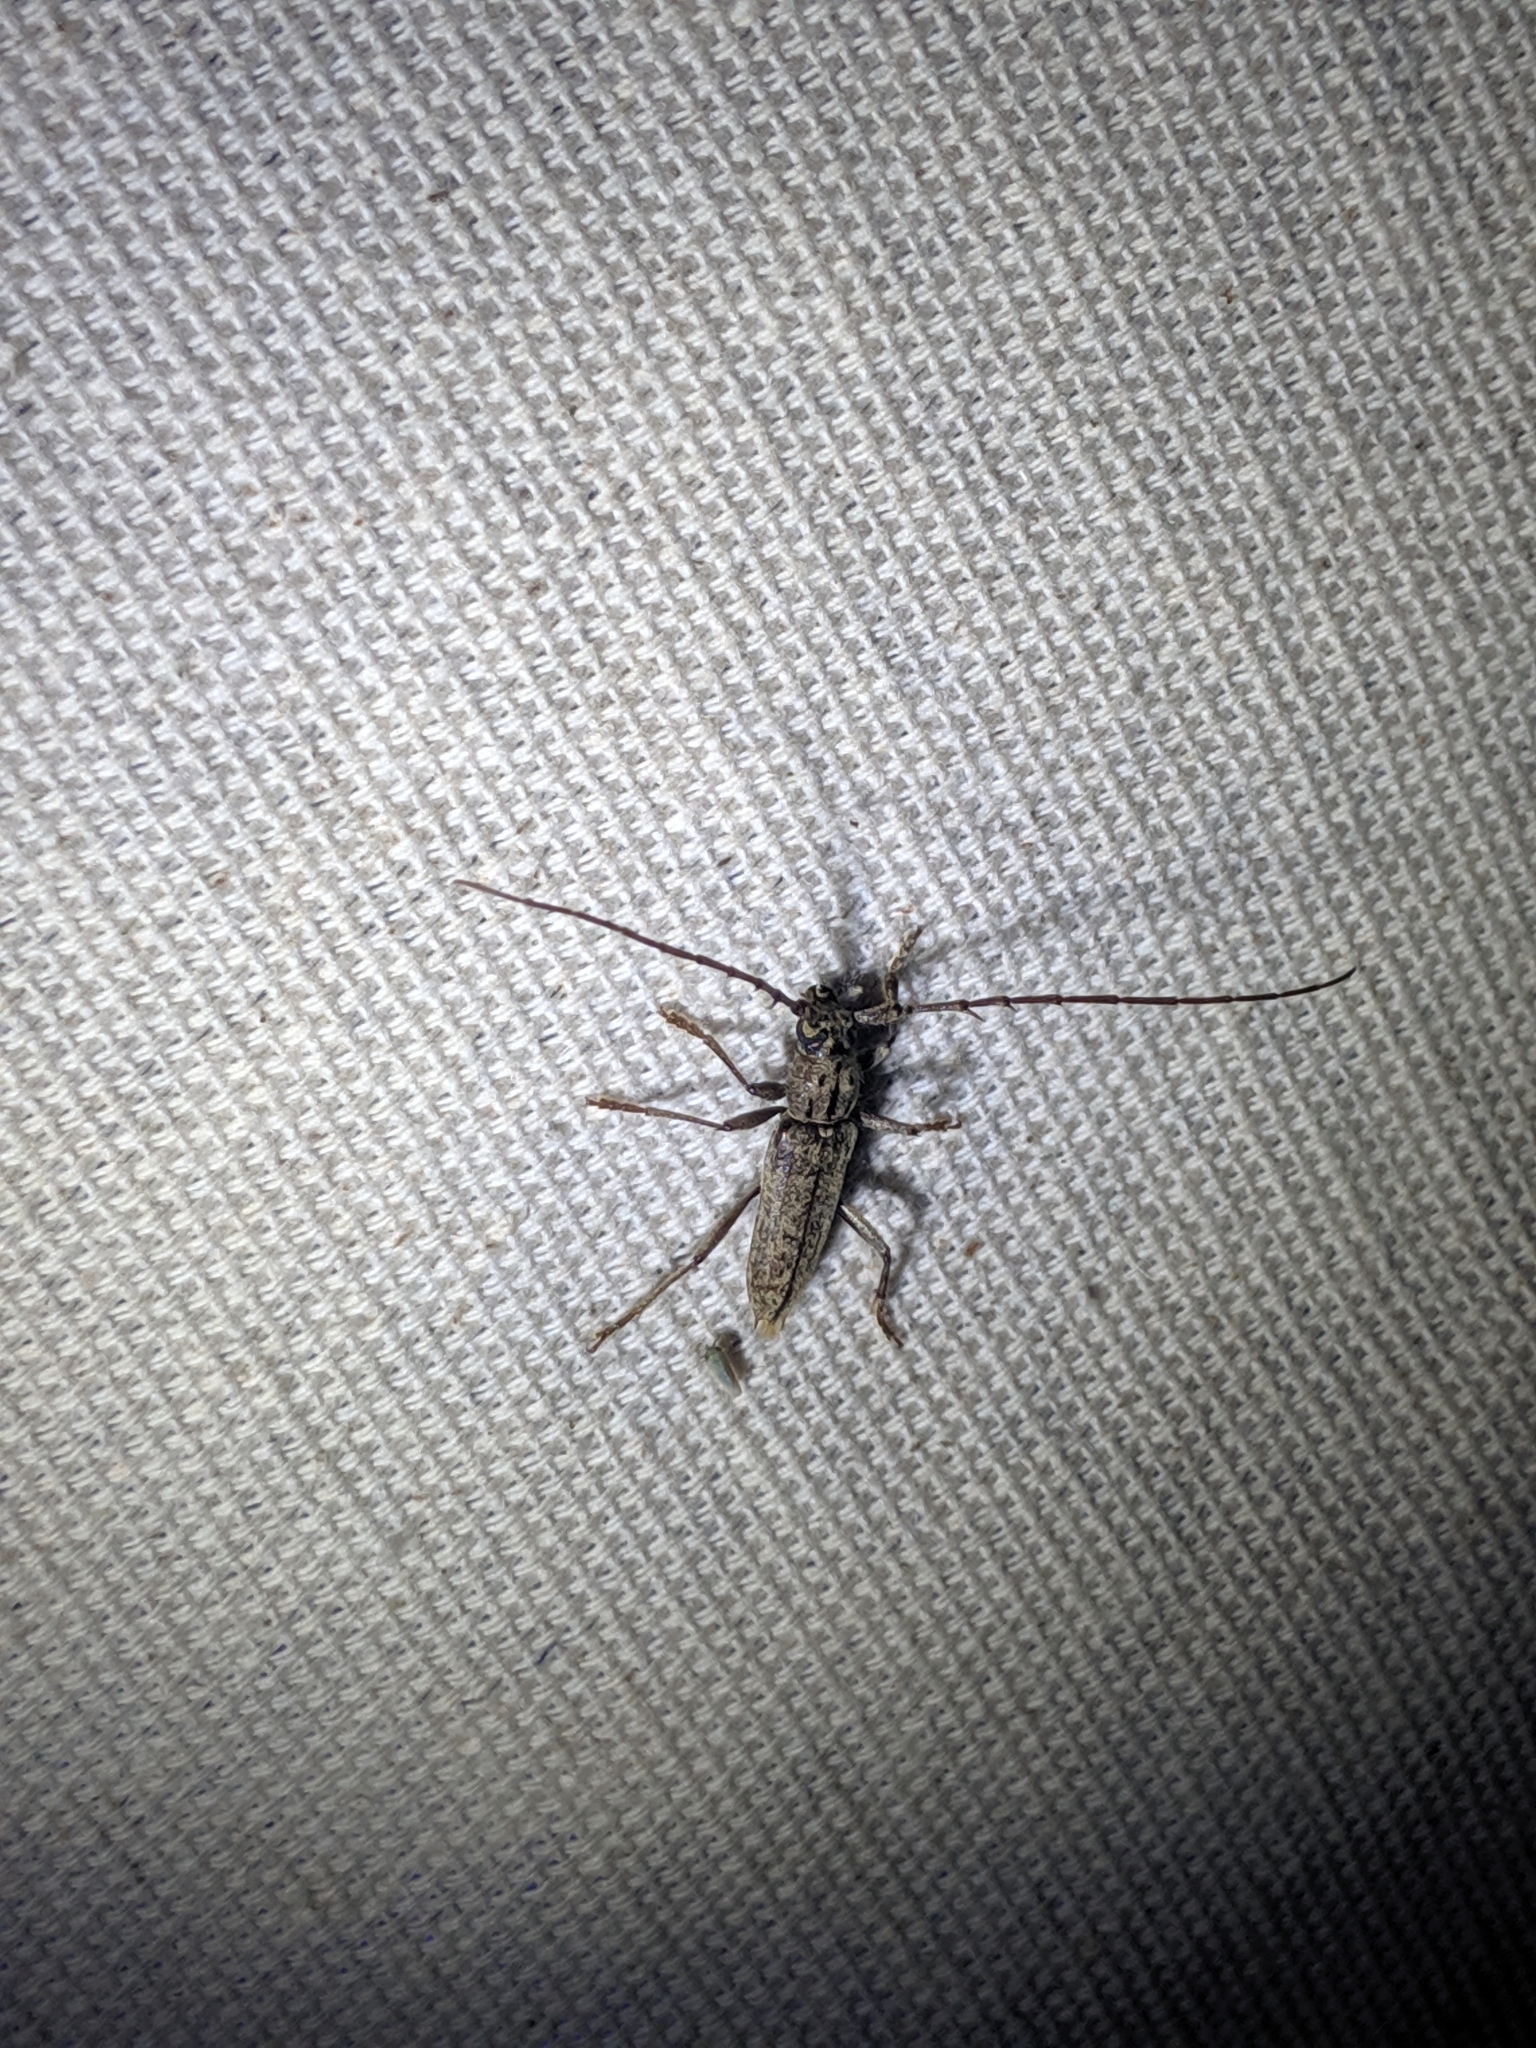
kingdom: Animalia
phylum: Arthropoda
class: Insecta
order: Coleoptera
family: Cerambycidae
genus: Elaphidion
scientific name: Elaphidion mucronatum
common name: Spined oak borer
